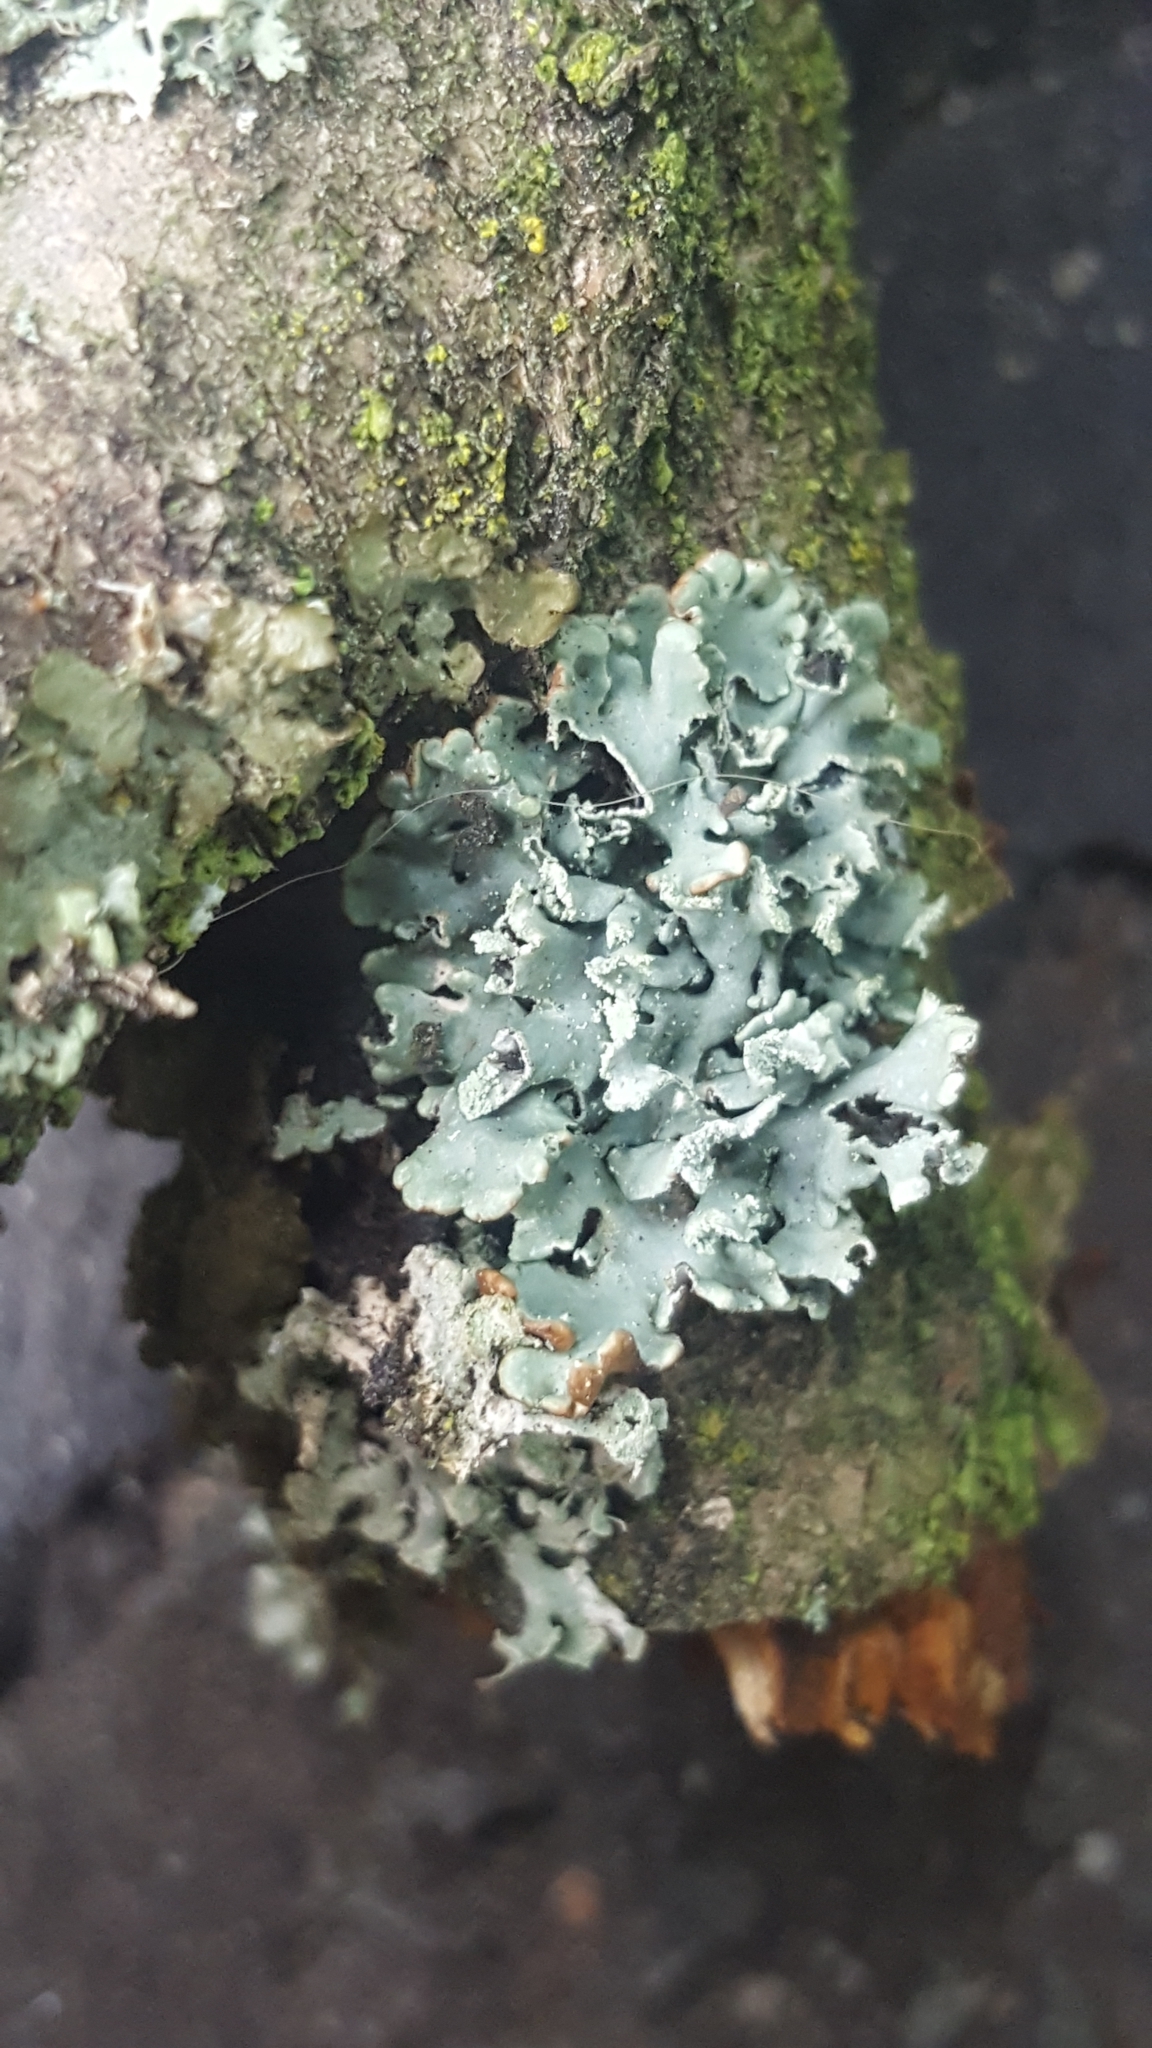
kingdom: Fungi
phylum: Ascomycota
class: Lecanoromycetes
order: Lecanorales
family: Parmeliaceae
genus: Hypogymnia
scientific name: Hypogymnia physodes
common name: Dark crottle
